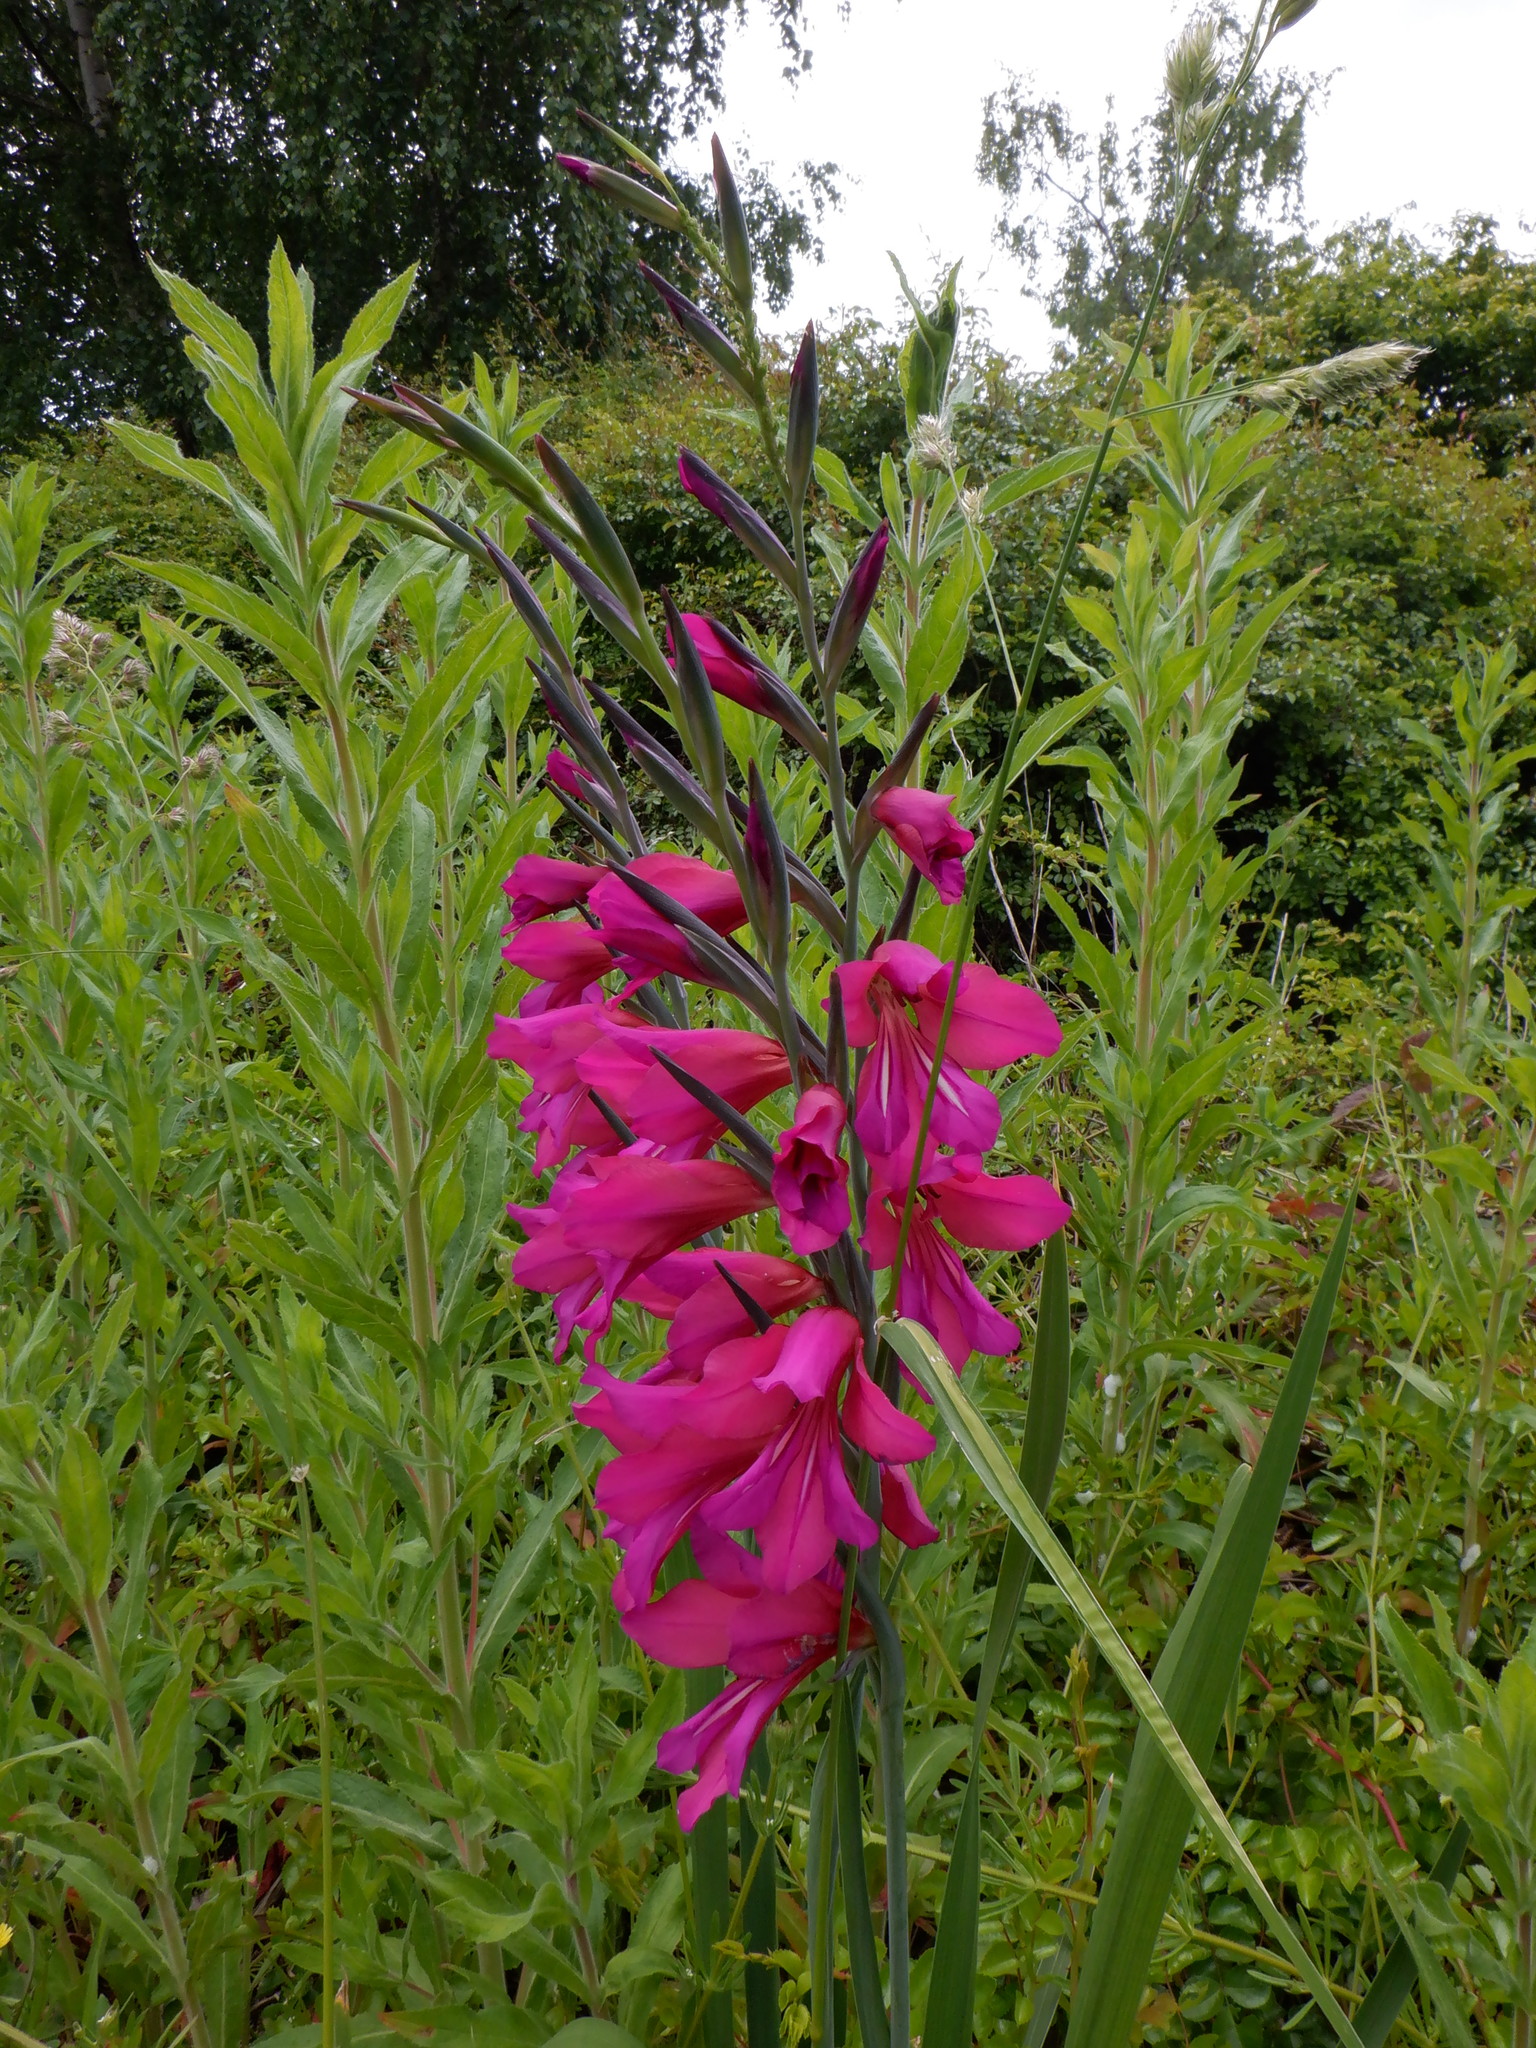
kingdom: Plantae
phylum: Tracheophyta
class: Liliopsida
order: Asparagales
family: Iridaceae
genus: Gladiolus
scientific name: Gladiolus byzantinus
